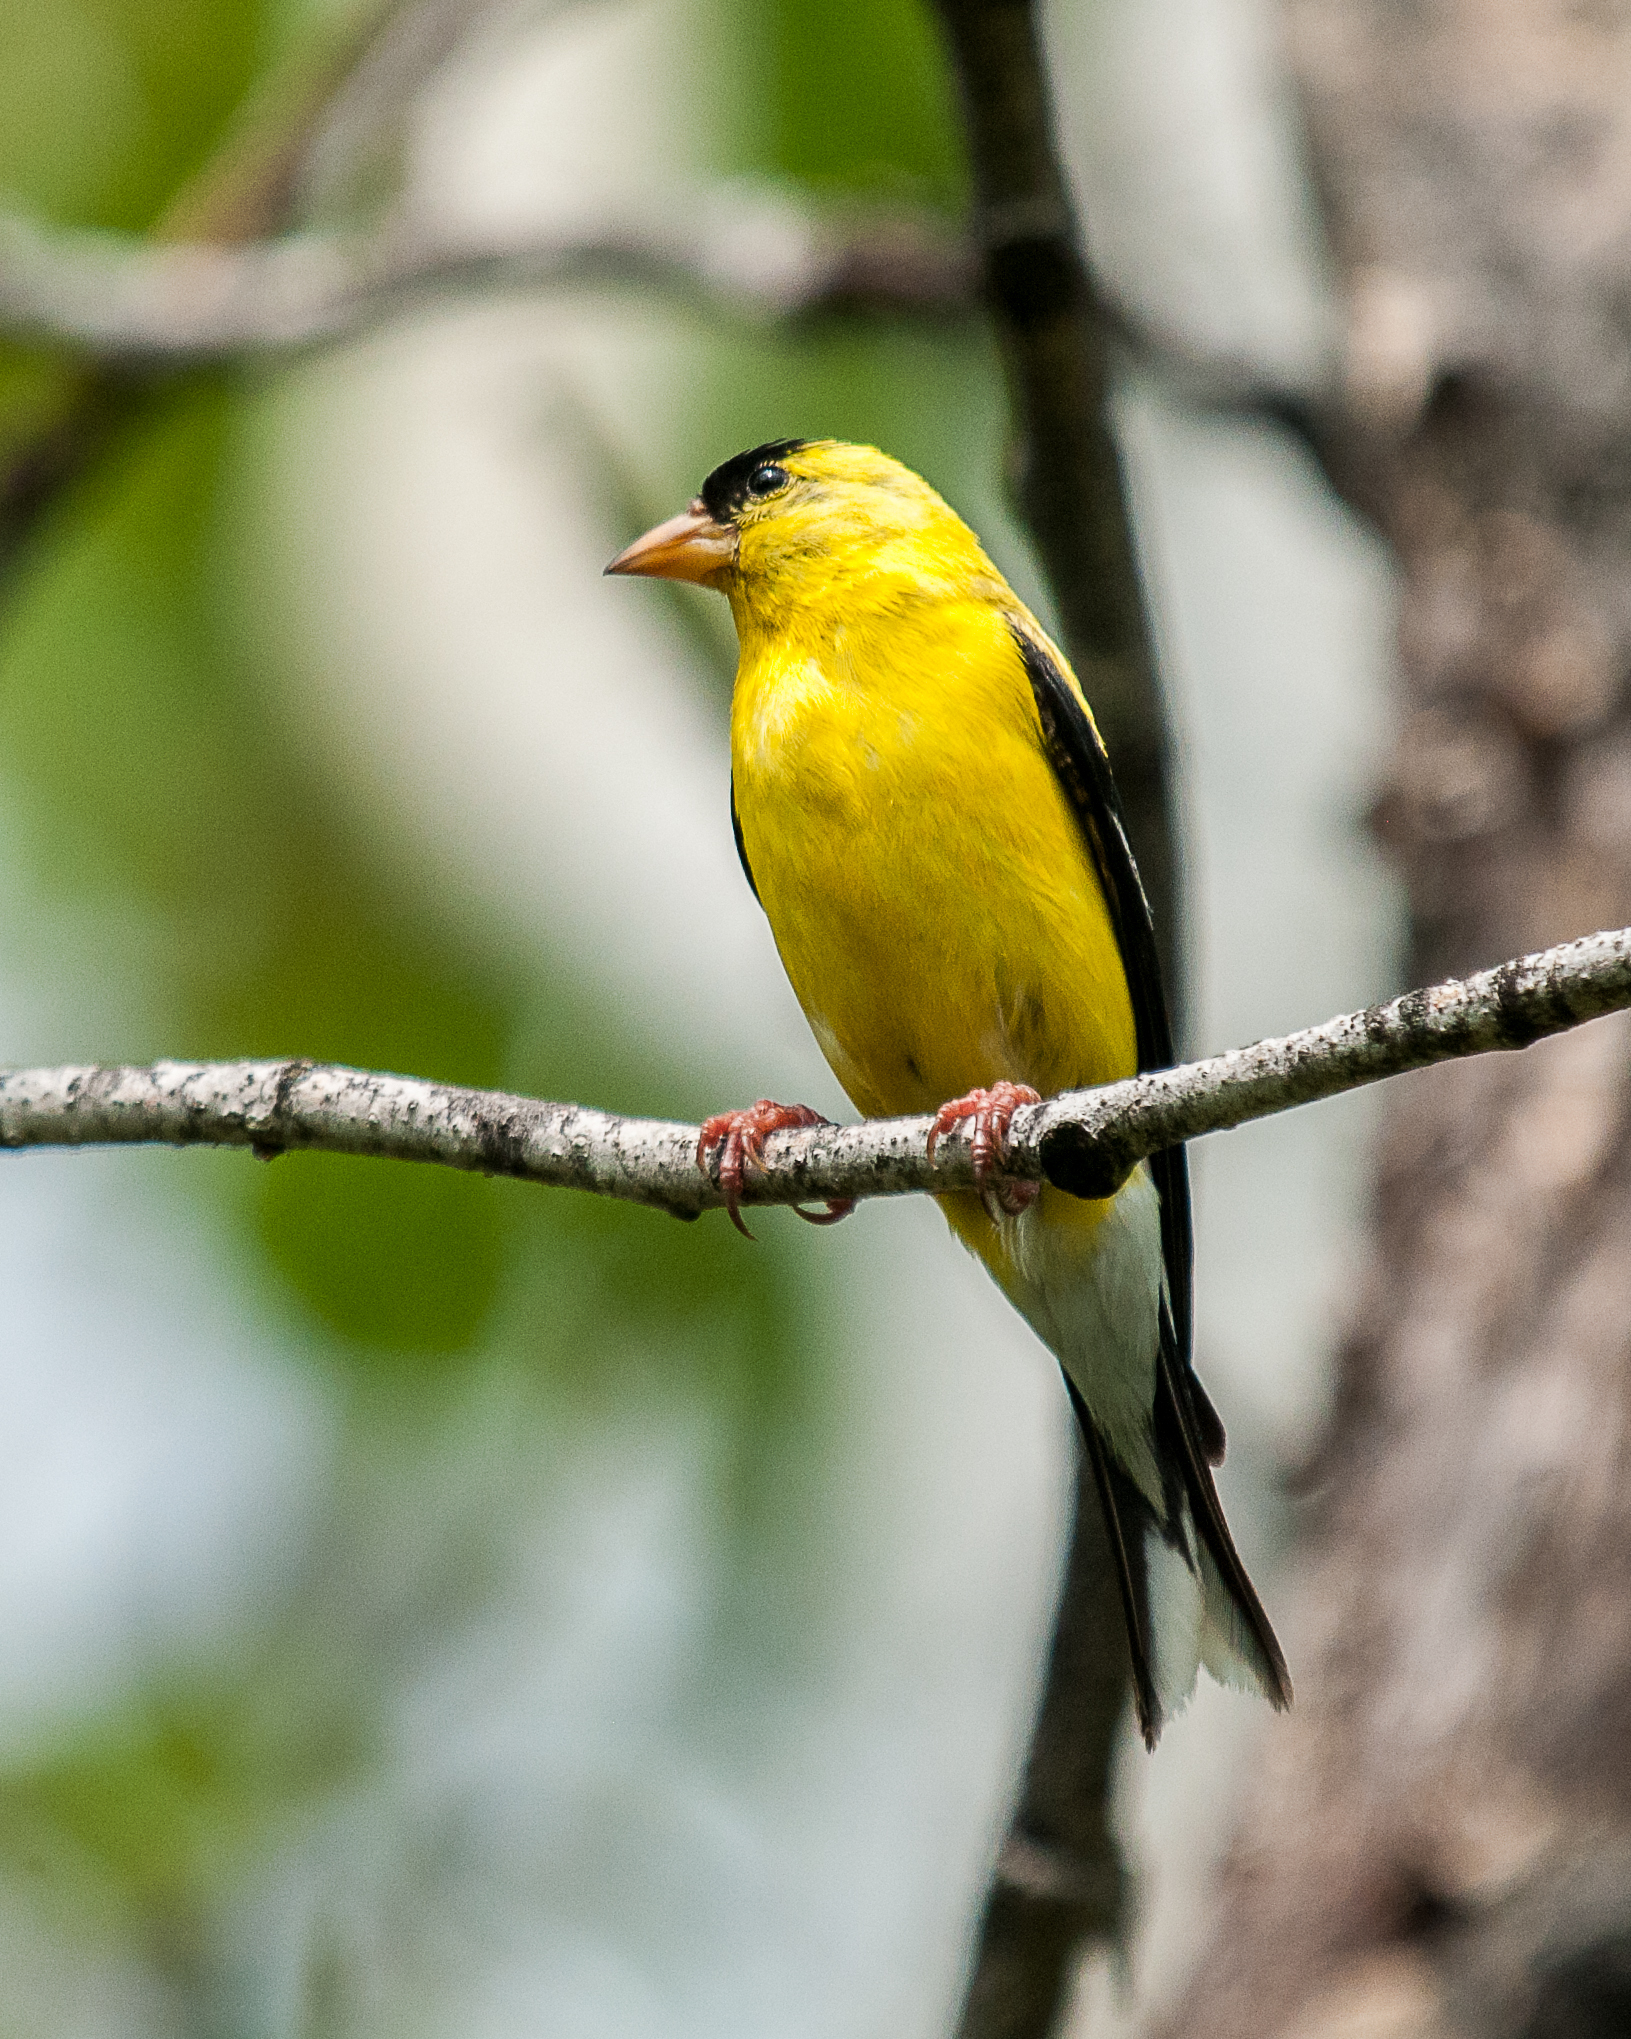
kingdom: Animalia
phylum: Chordata
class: Aves
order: Passeriformes
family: Fringillidae
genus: Spinus
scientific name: Spinus tristis
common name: American goldfinch
